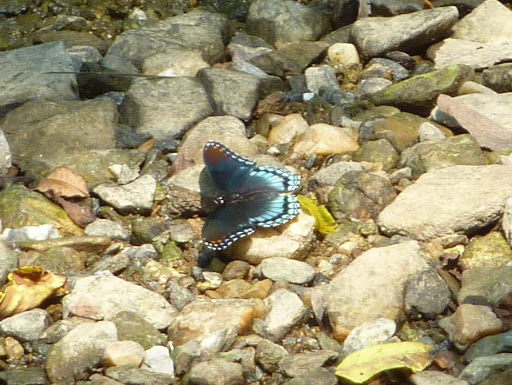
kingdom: Animalia
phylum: Arthropoda
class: Insecta
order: Lepidoptera
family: Nymphalidae
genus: Limenitis
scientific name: Limenitis astyanax
